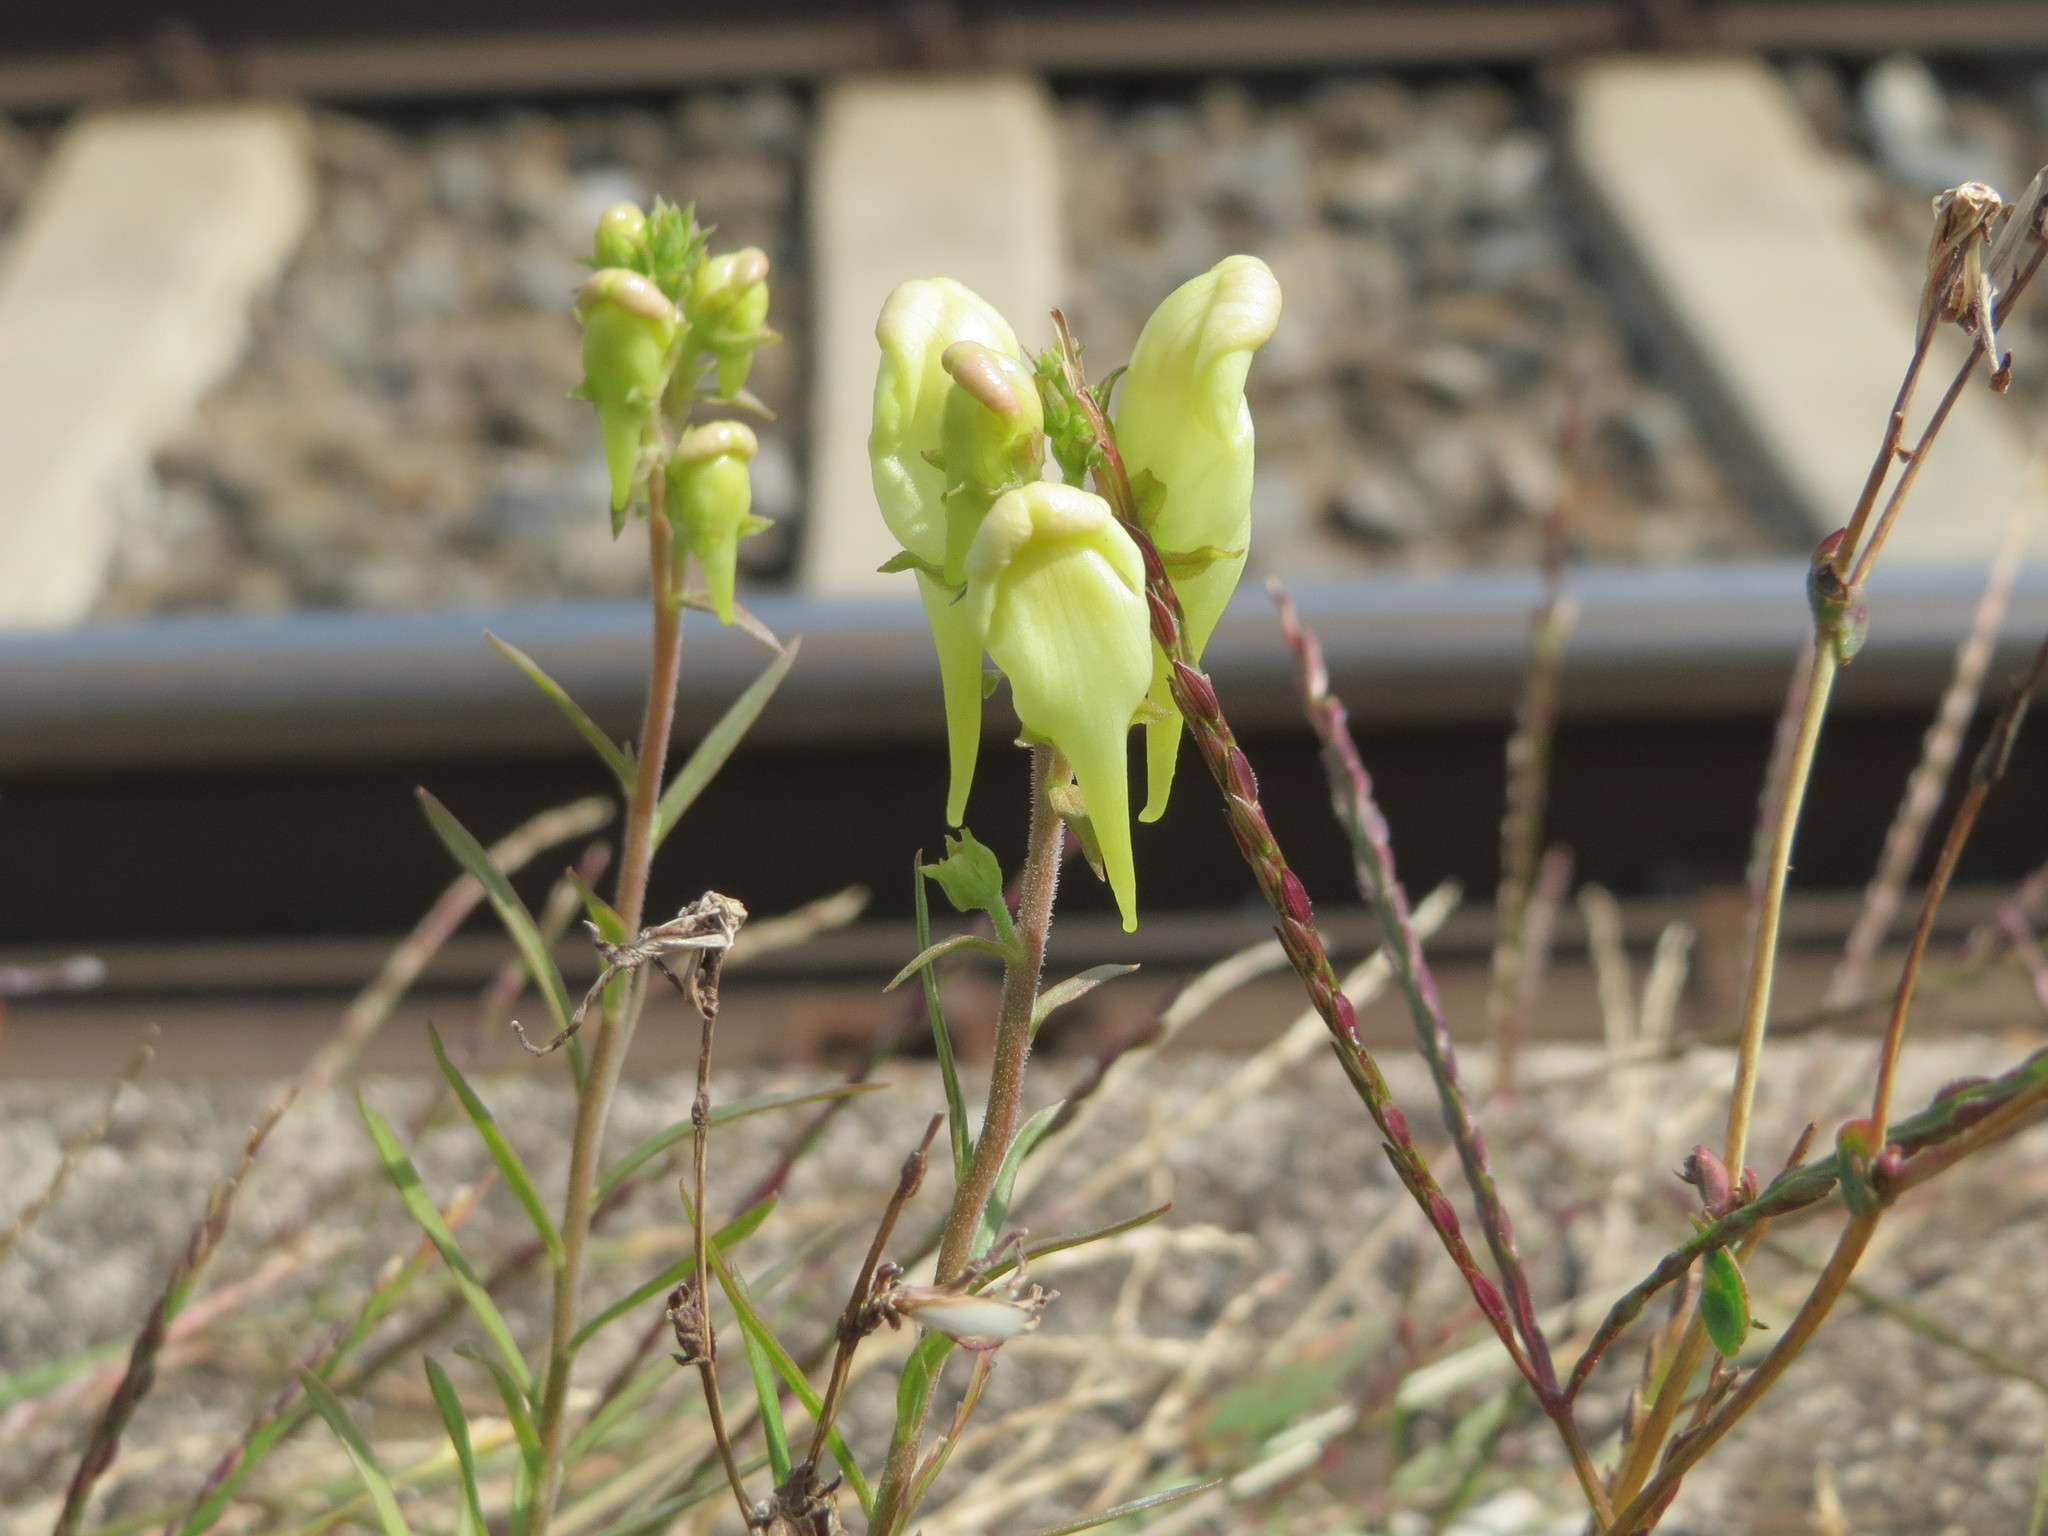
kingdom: Plantae
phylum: Tracheophyta
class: Magnoliopsida
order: Lamiales
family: Plantaginaceae
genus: Linaria
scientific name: Linaria vulgaris
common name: Butter and eggs
